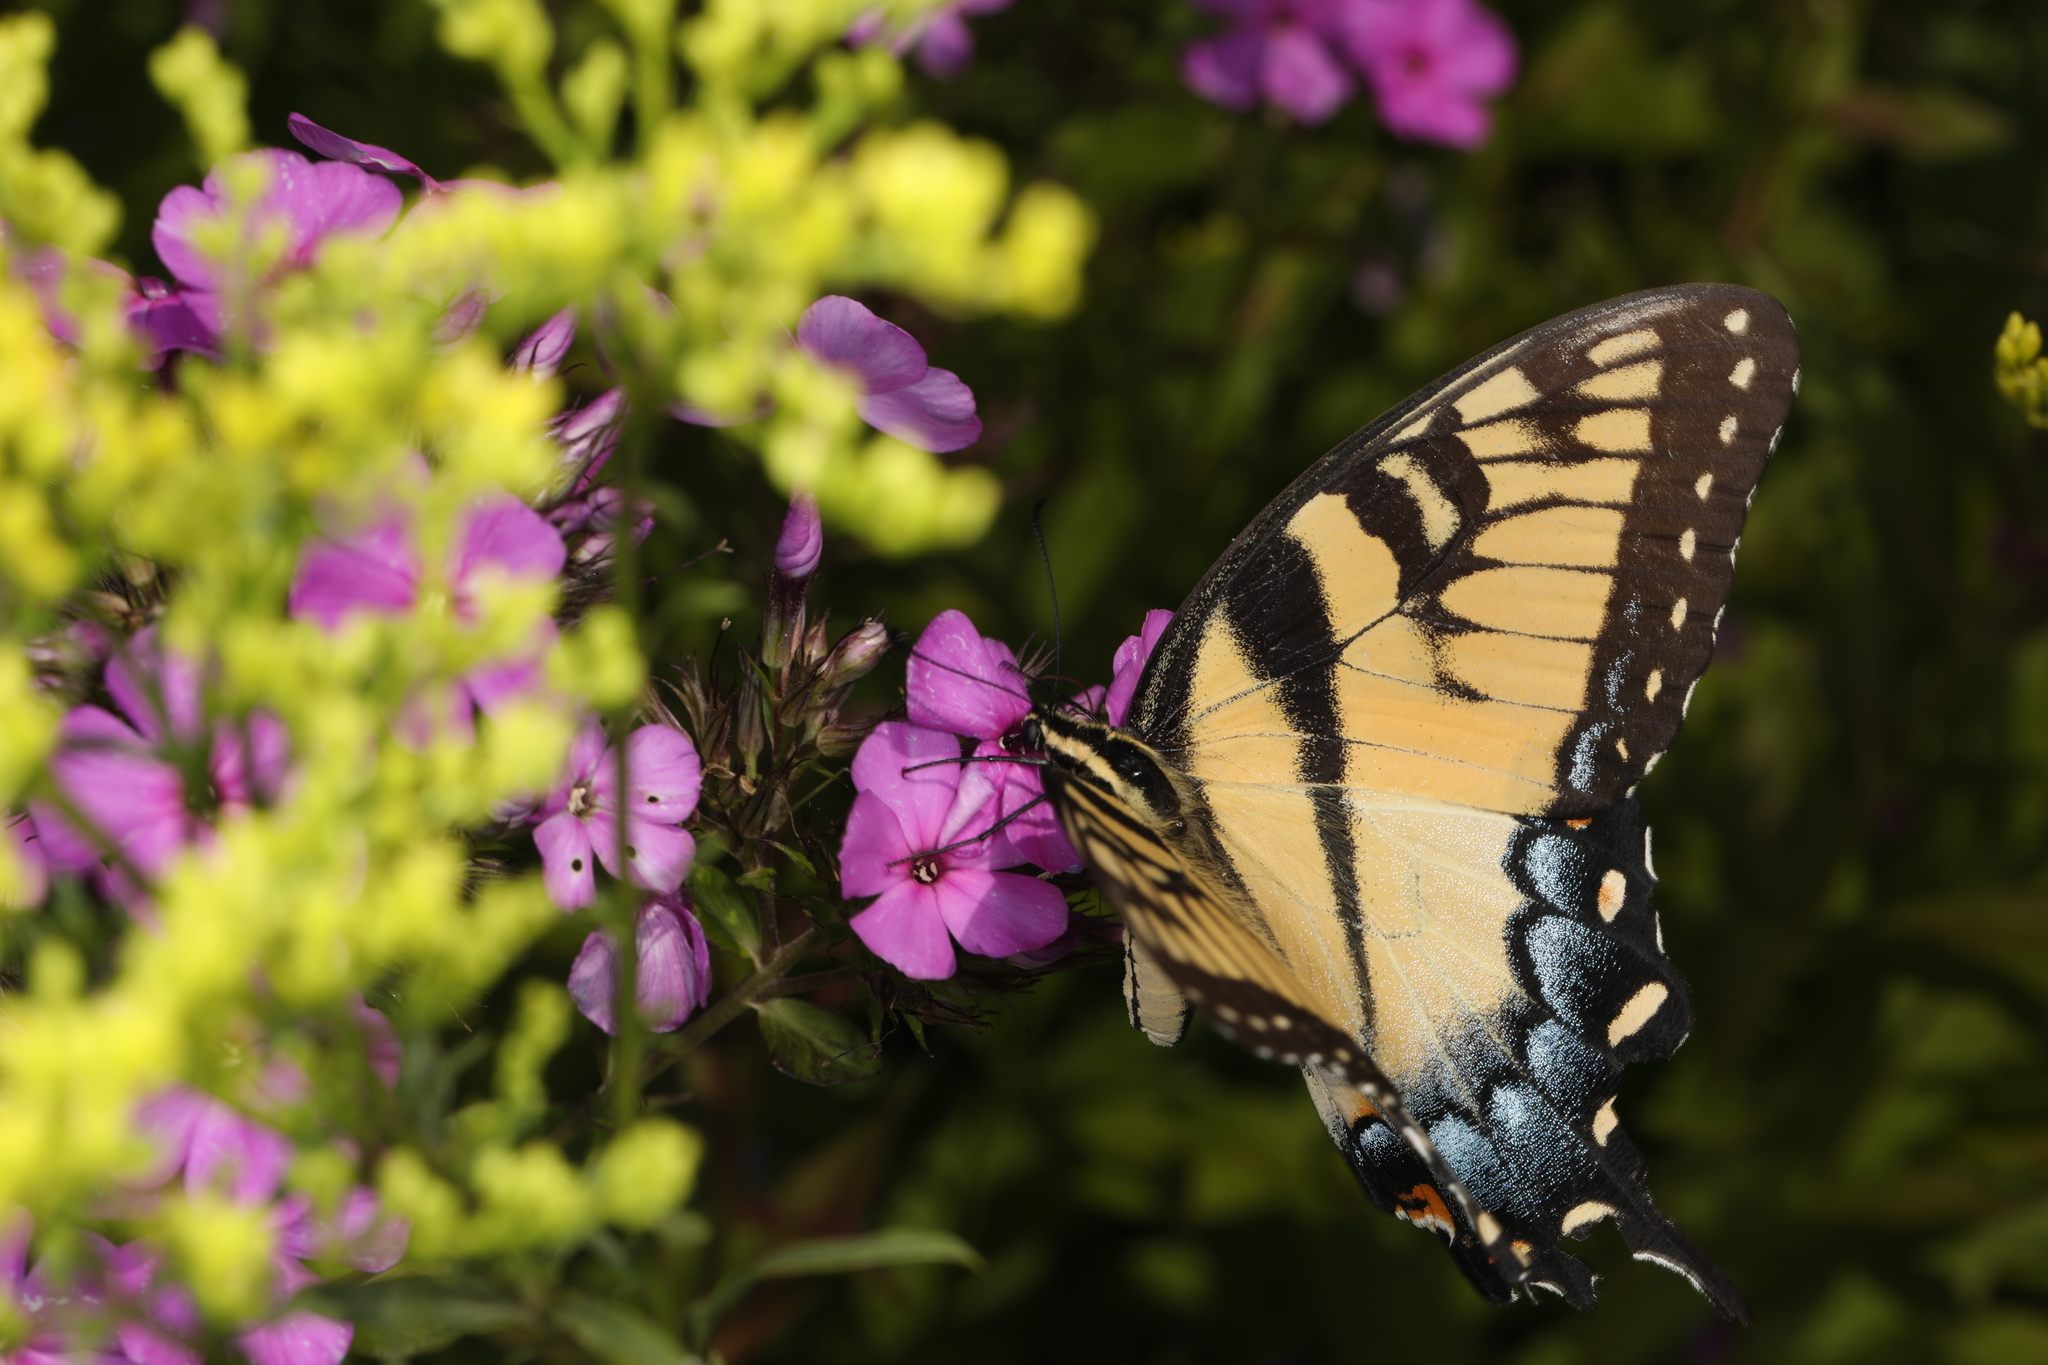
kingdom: Animalia
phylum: Arthropoda
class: Insecta
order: Lepidoptera
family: Papilionidae
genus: Papilio
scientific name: Papilio glaucus
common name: Tiger swallowtail
